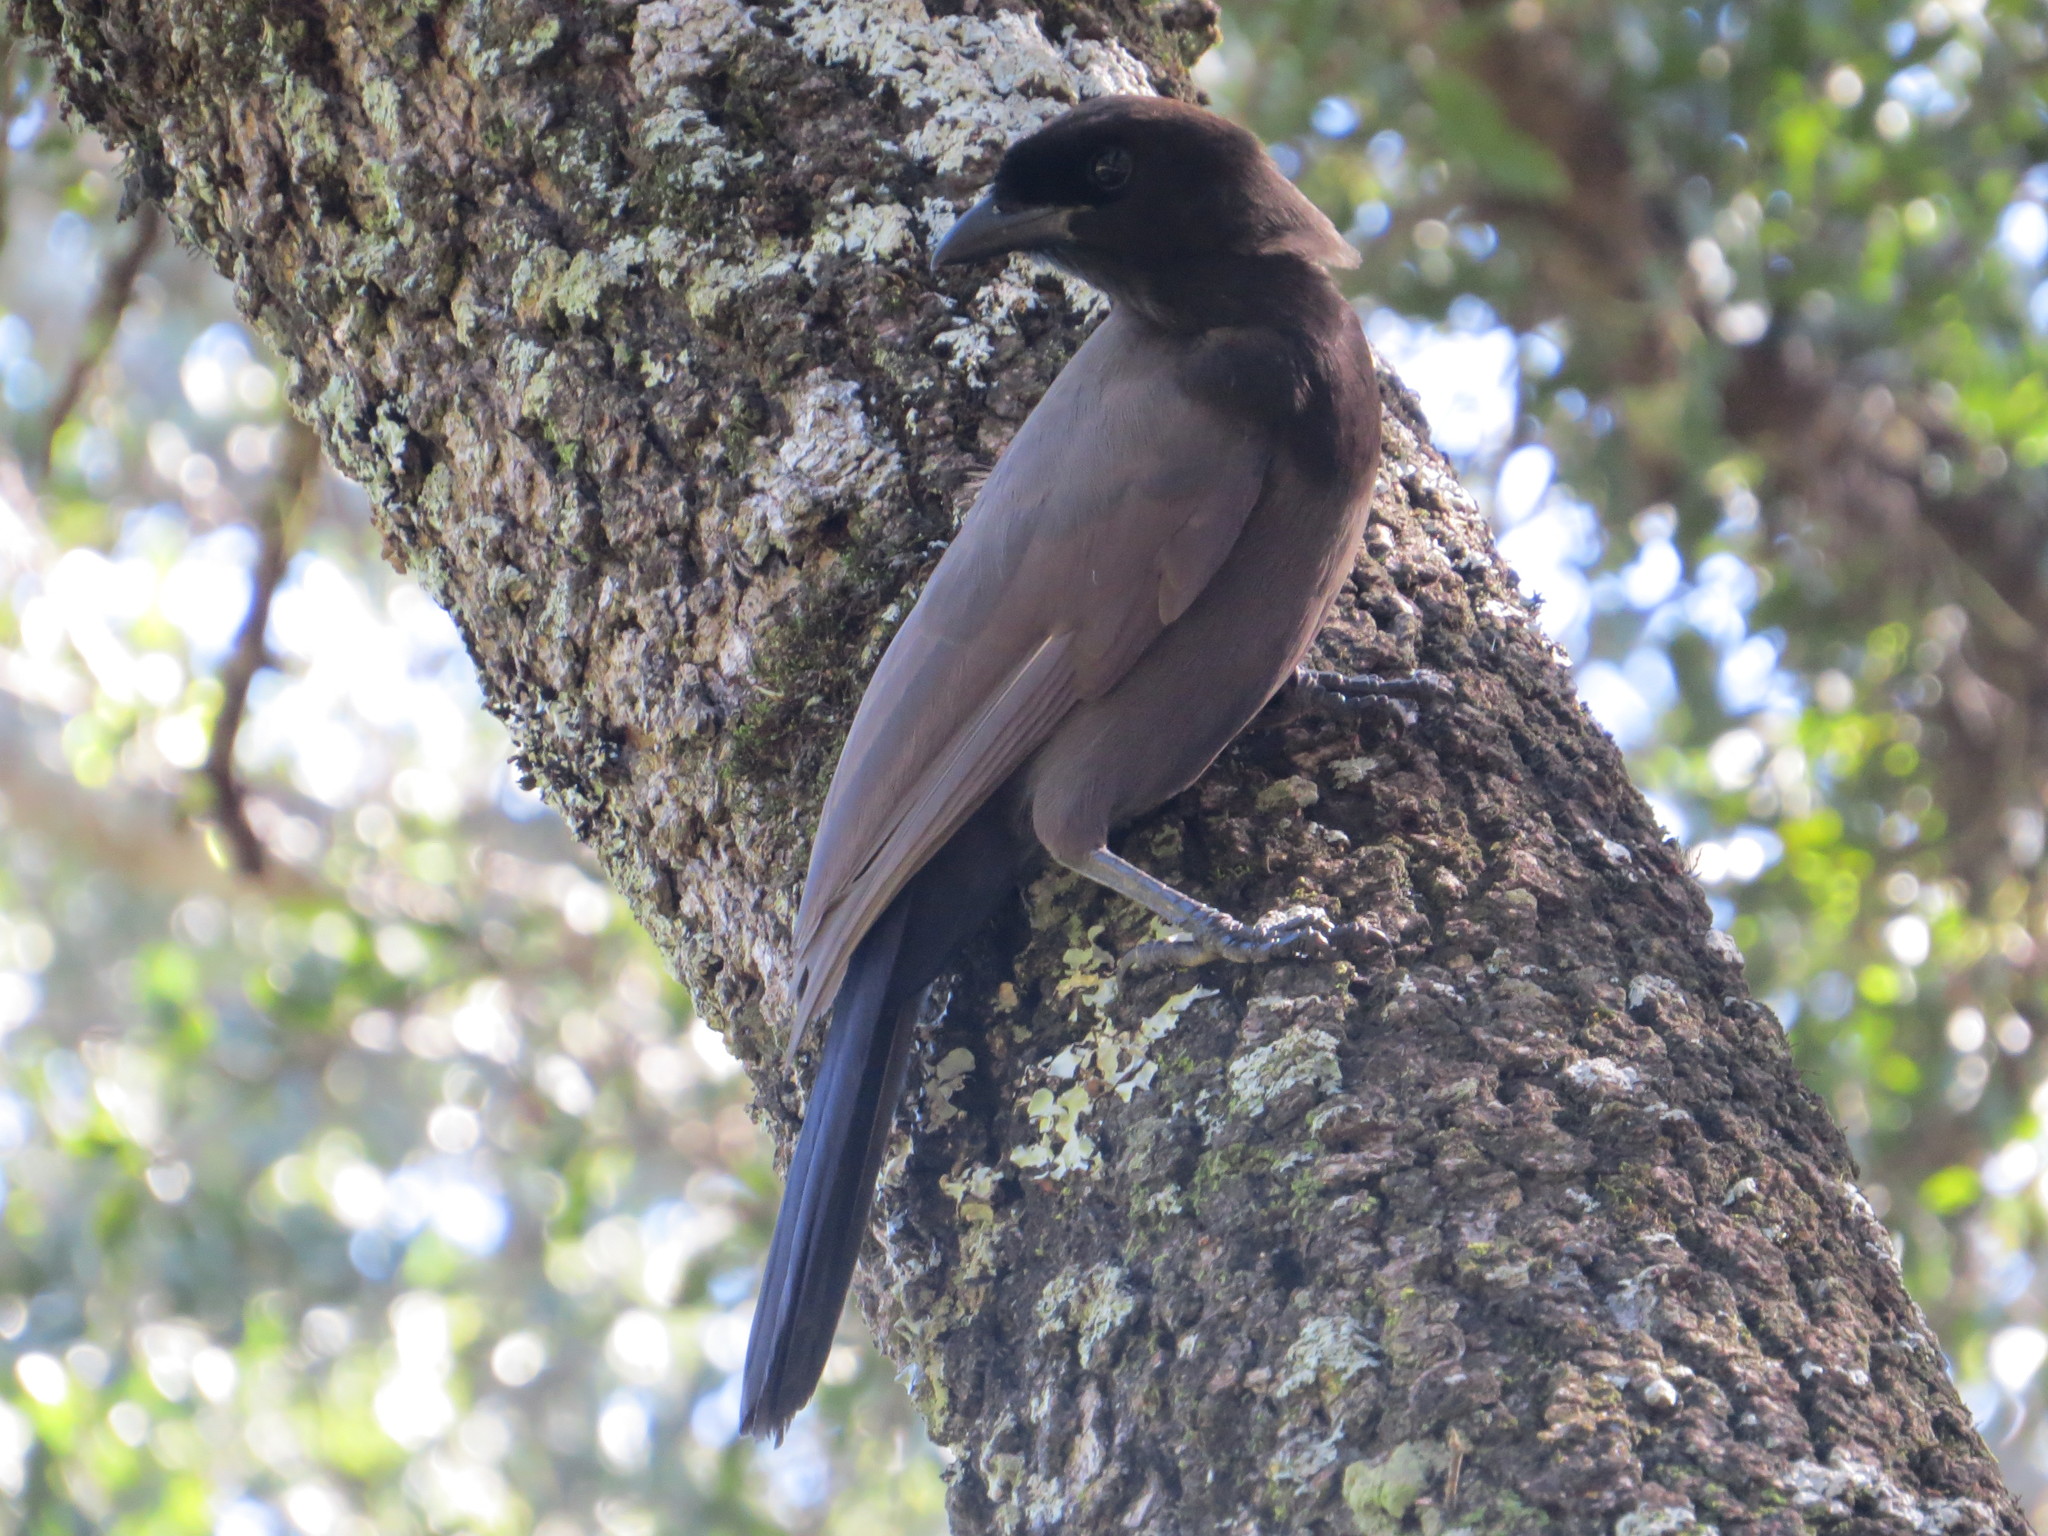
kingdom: Animalia
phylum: Chordata
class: Aves
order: Passeriformes
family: Corvidae
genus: Cyanocorax
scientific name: Cyanocorax cyanomelas
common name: Purplish jay
